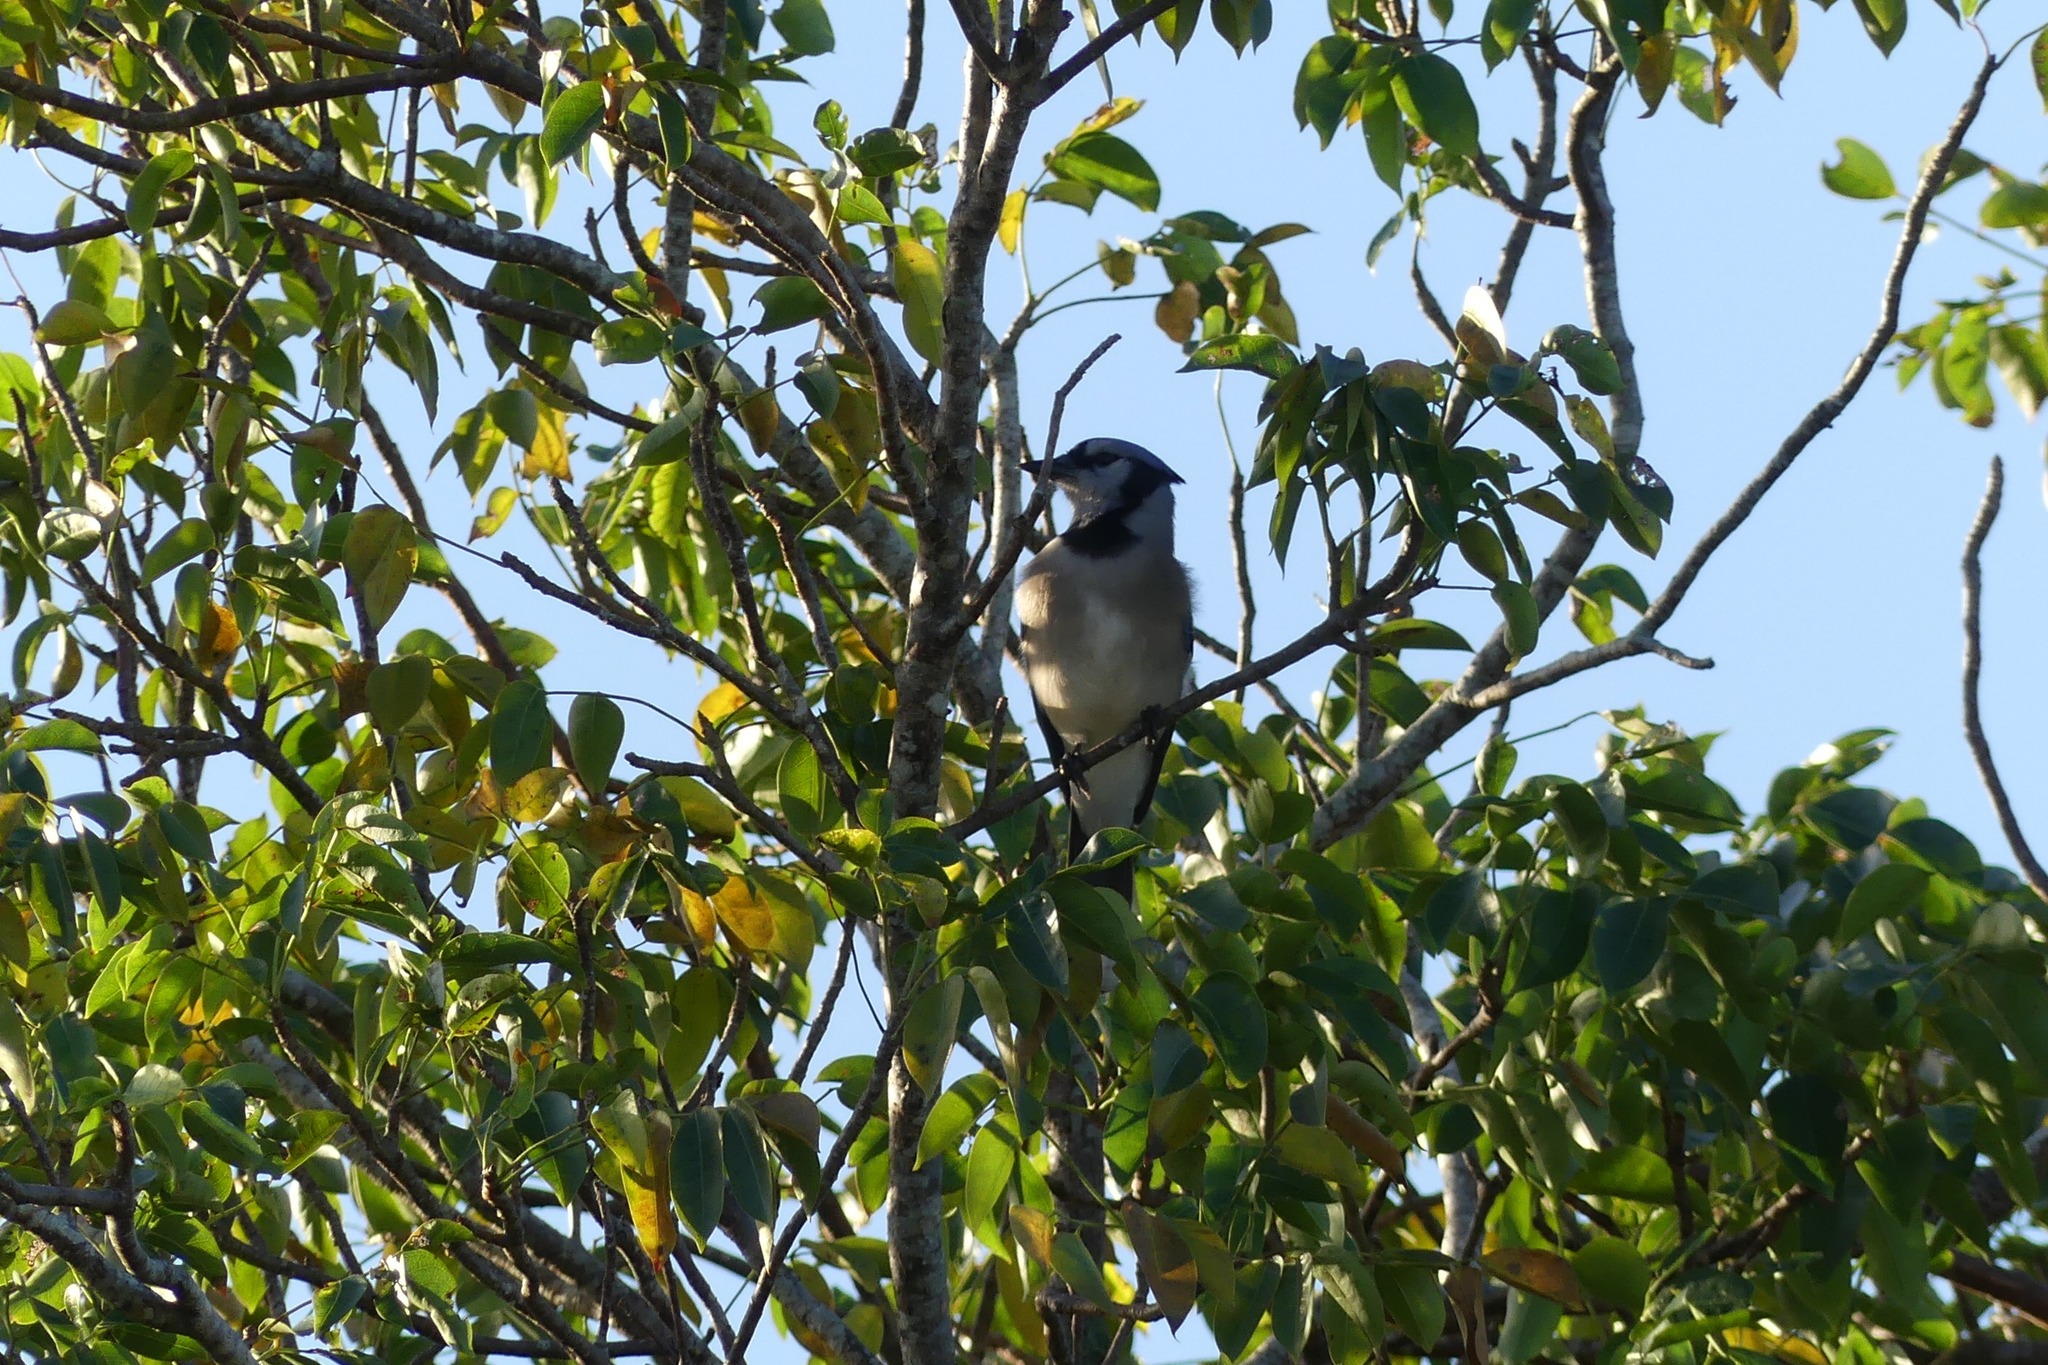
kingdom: Animalia
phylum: Chordata
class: Aves
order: Passeriformes
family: Corvidae
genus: Cyanocitta
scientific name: Cyanocitta cristata
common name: Blue jay
